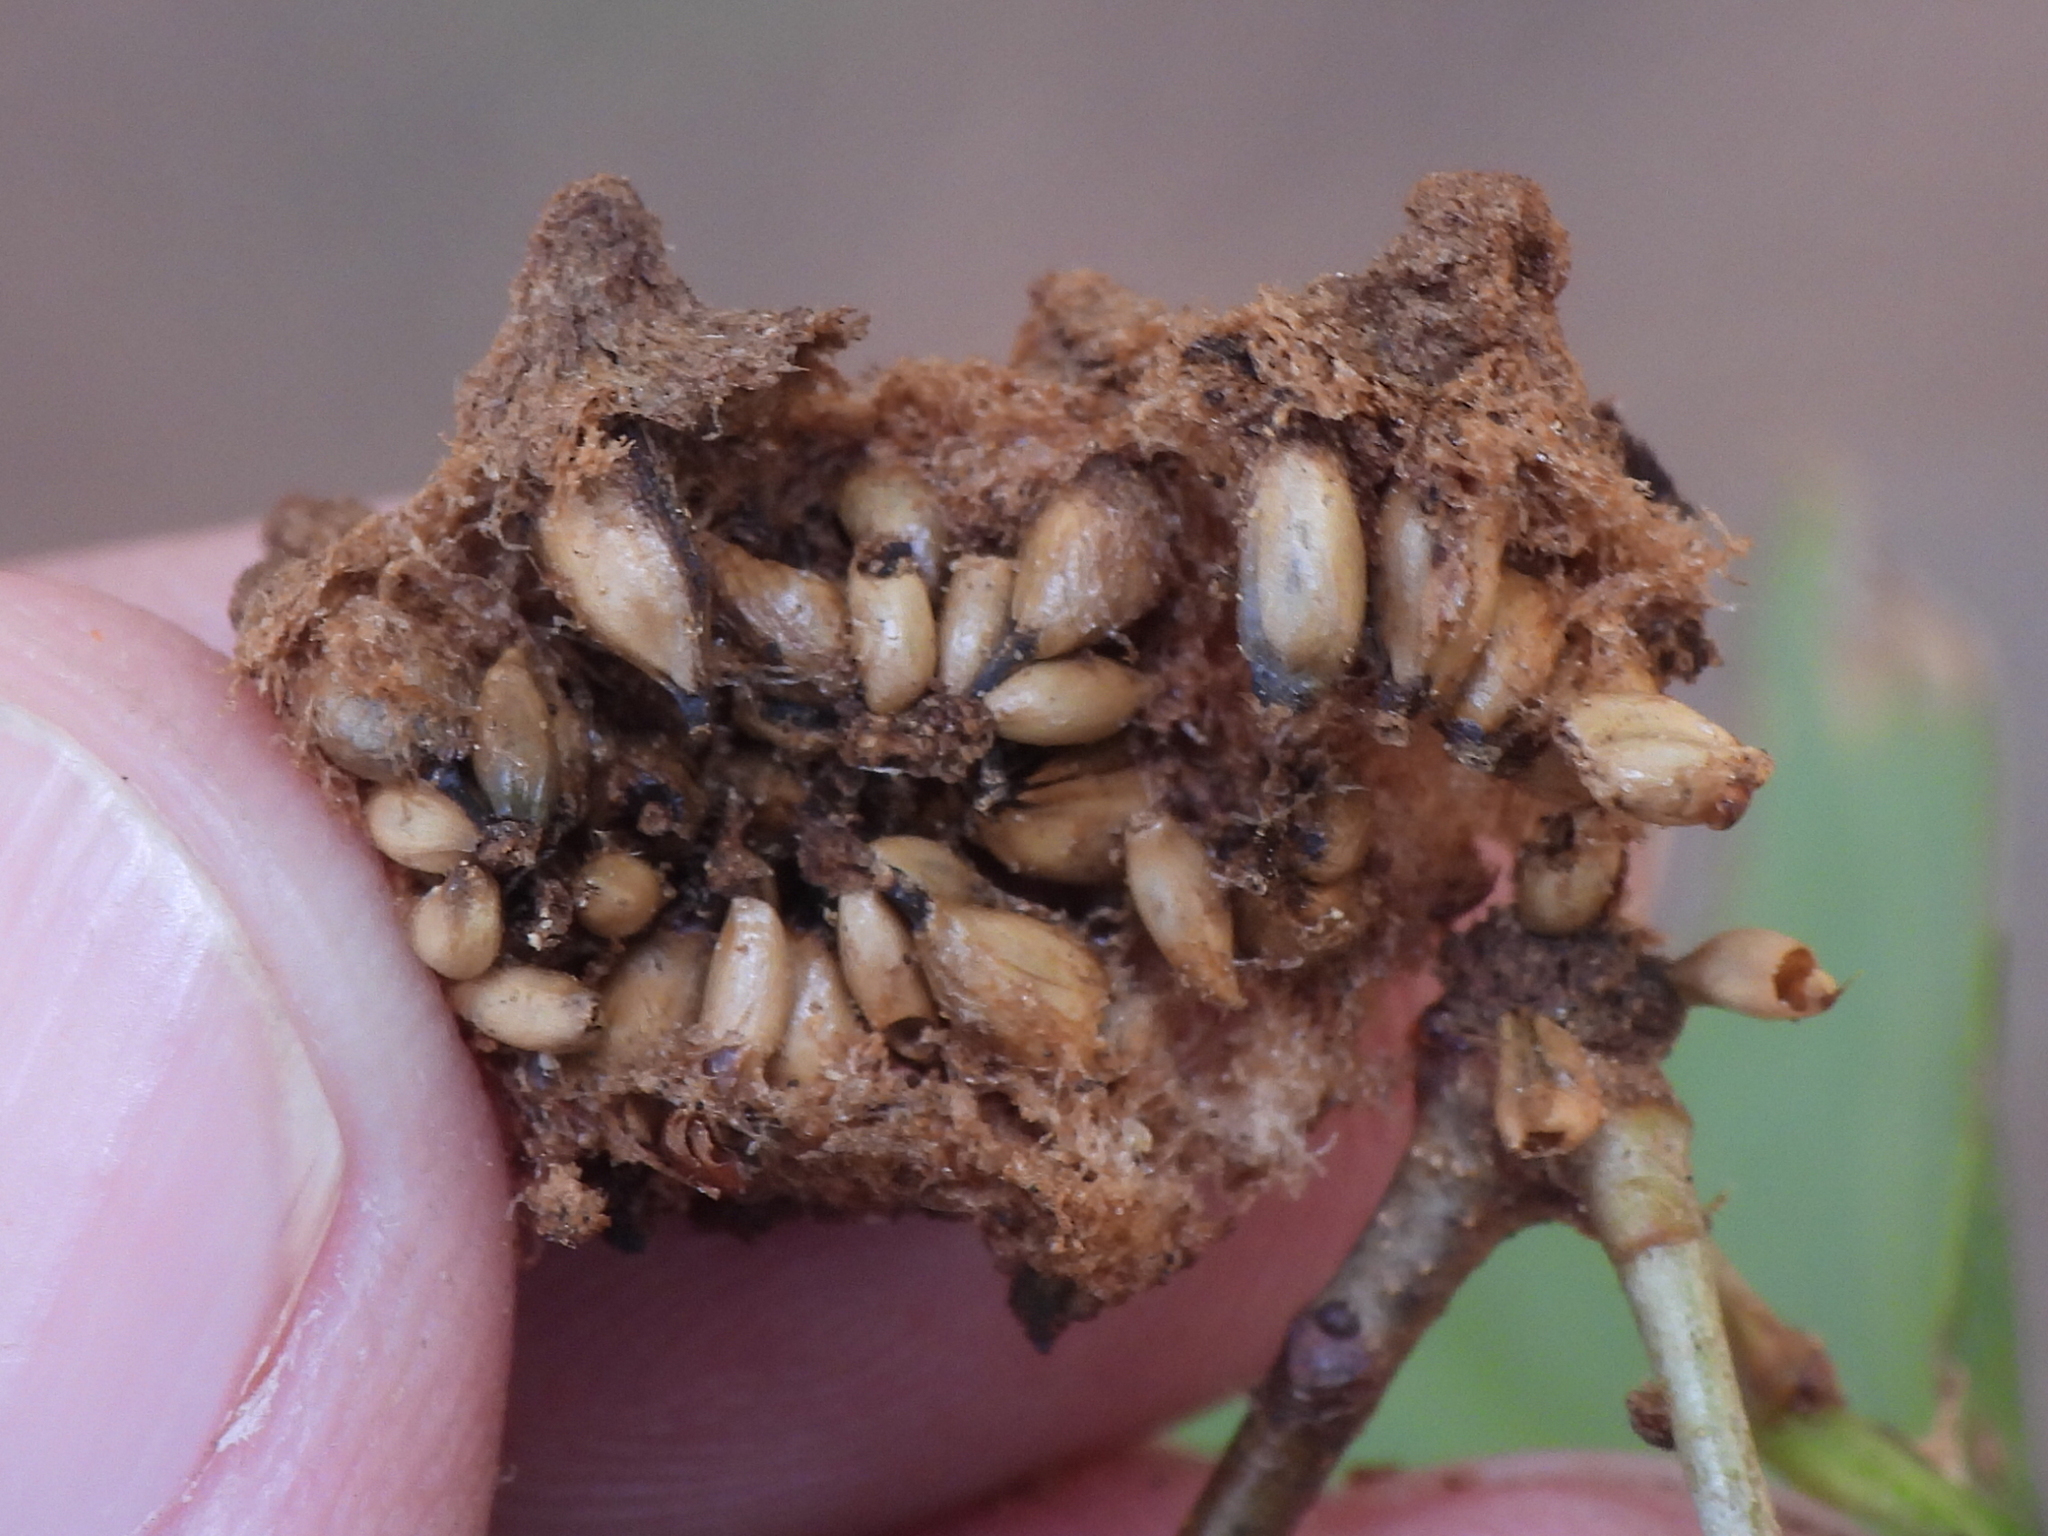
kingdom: Animalia
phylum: Arthropoda
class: Insecta
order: Hymenoptera
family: Cynipidae
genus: Callirhytis
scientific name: Callirhytis
